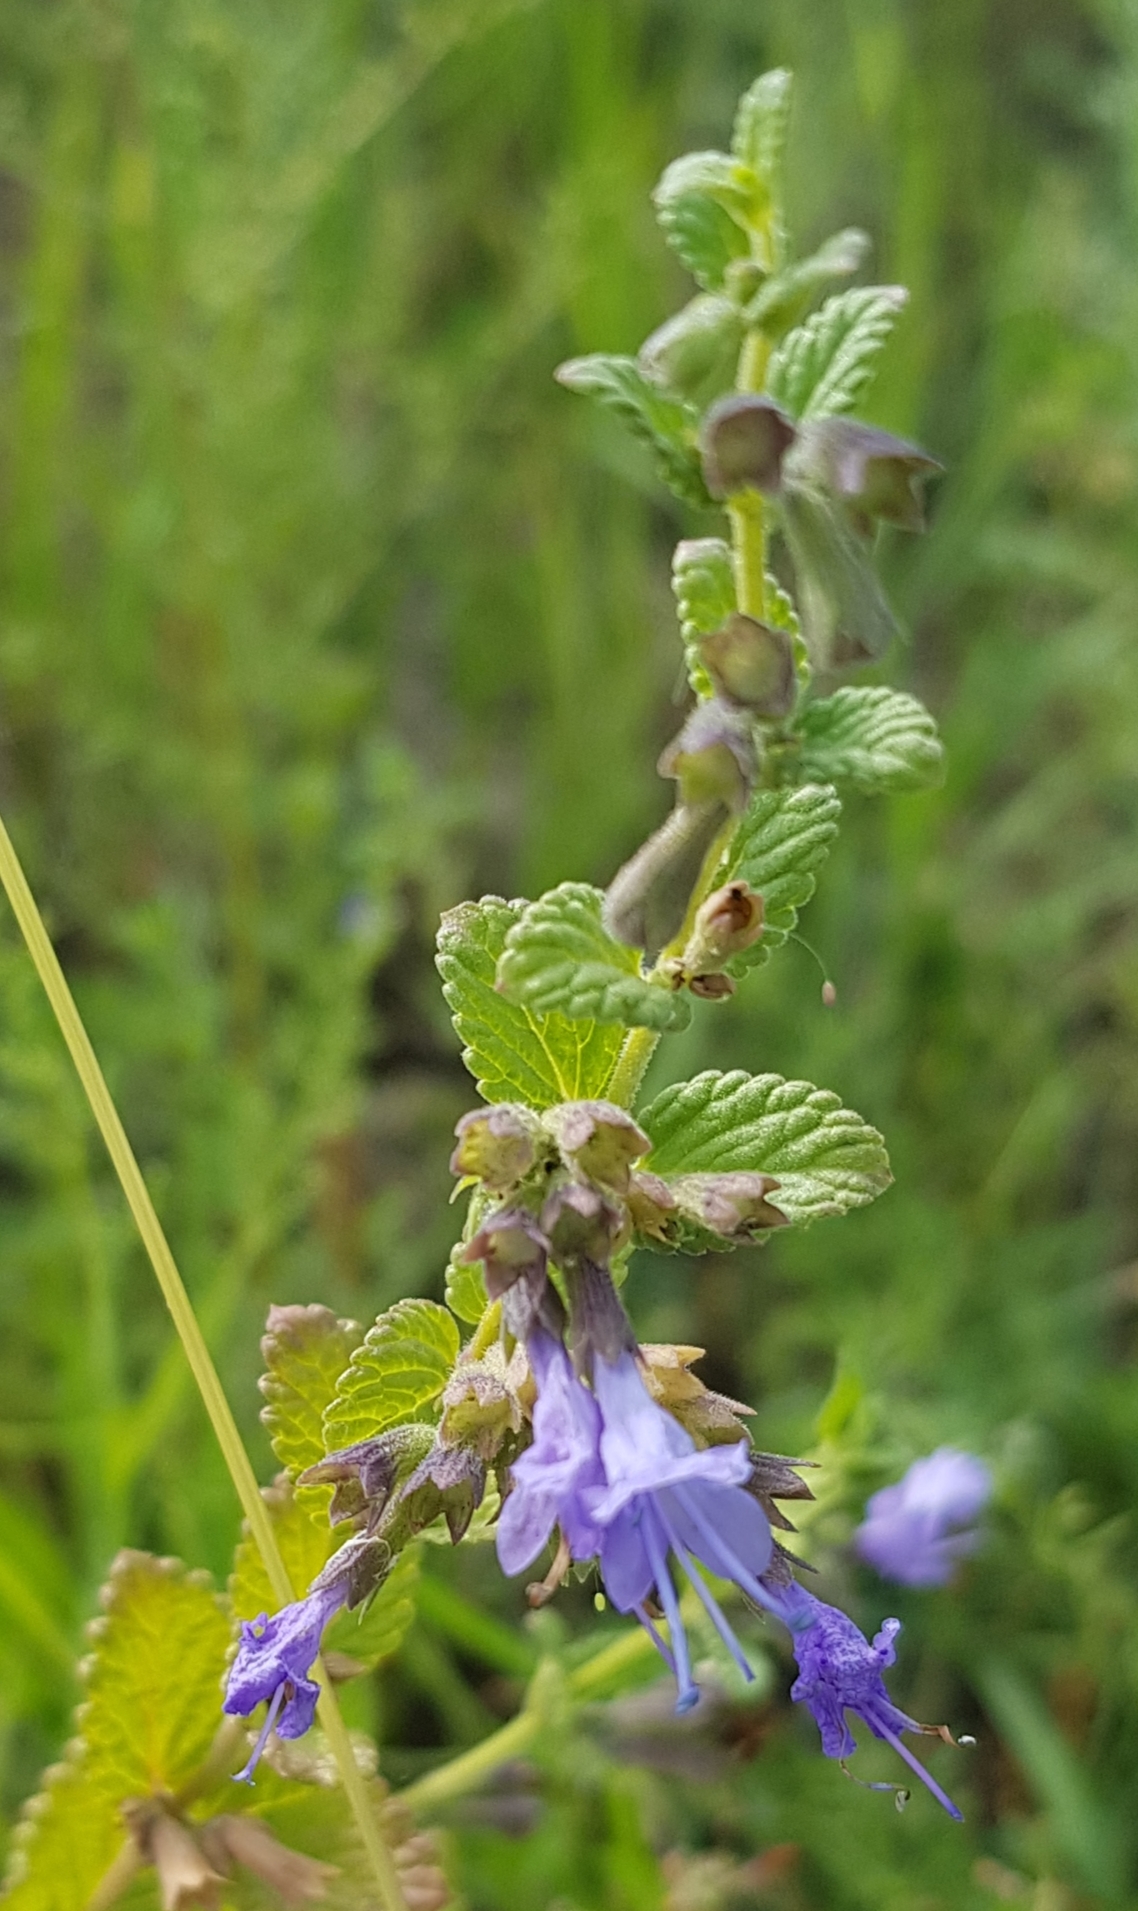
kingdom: Plantae
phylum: Tracheophyta
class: Magnoliopsida
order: Lamiales
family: Lamiaceae
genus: Nepeta
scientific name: Nepeta lophanthus
